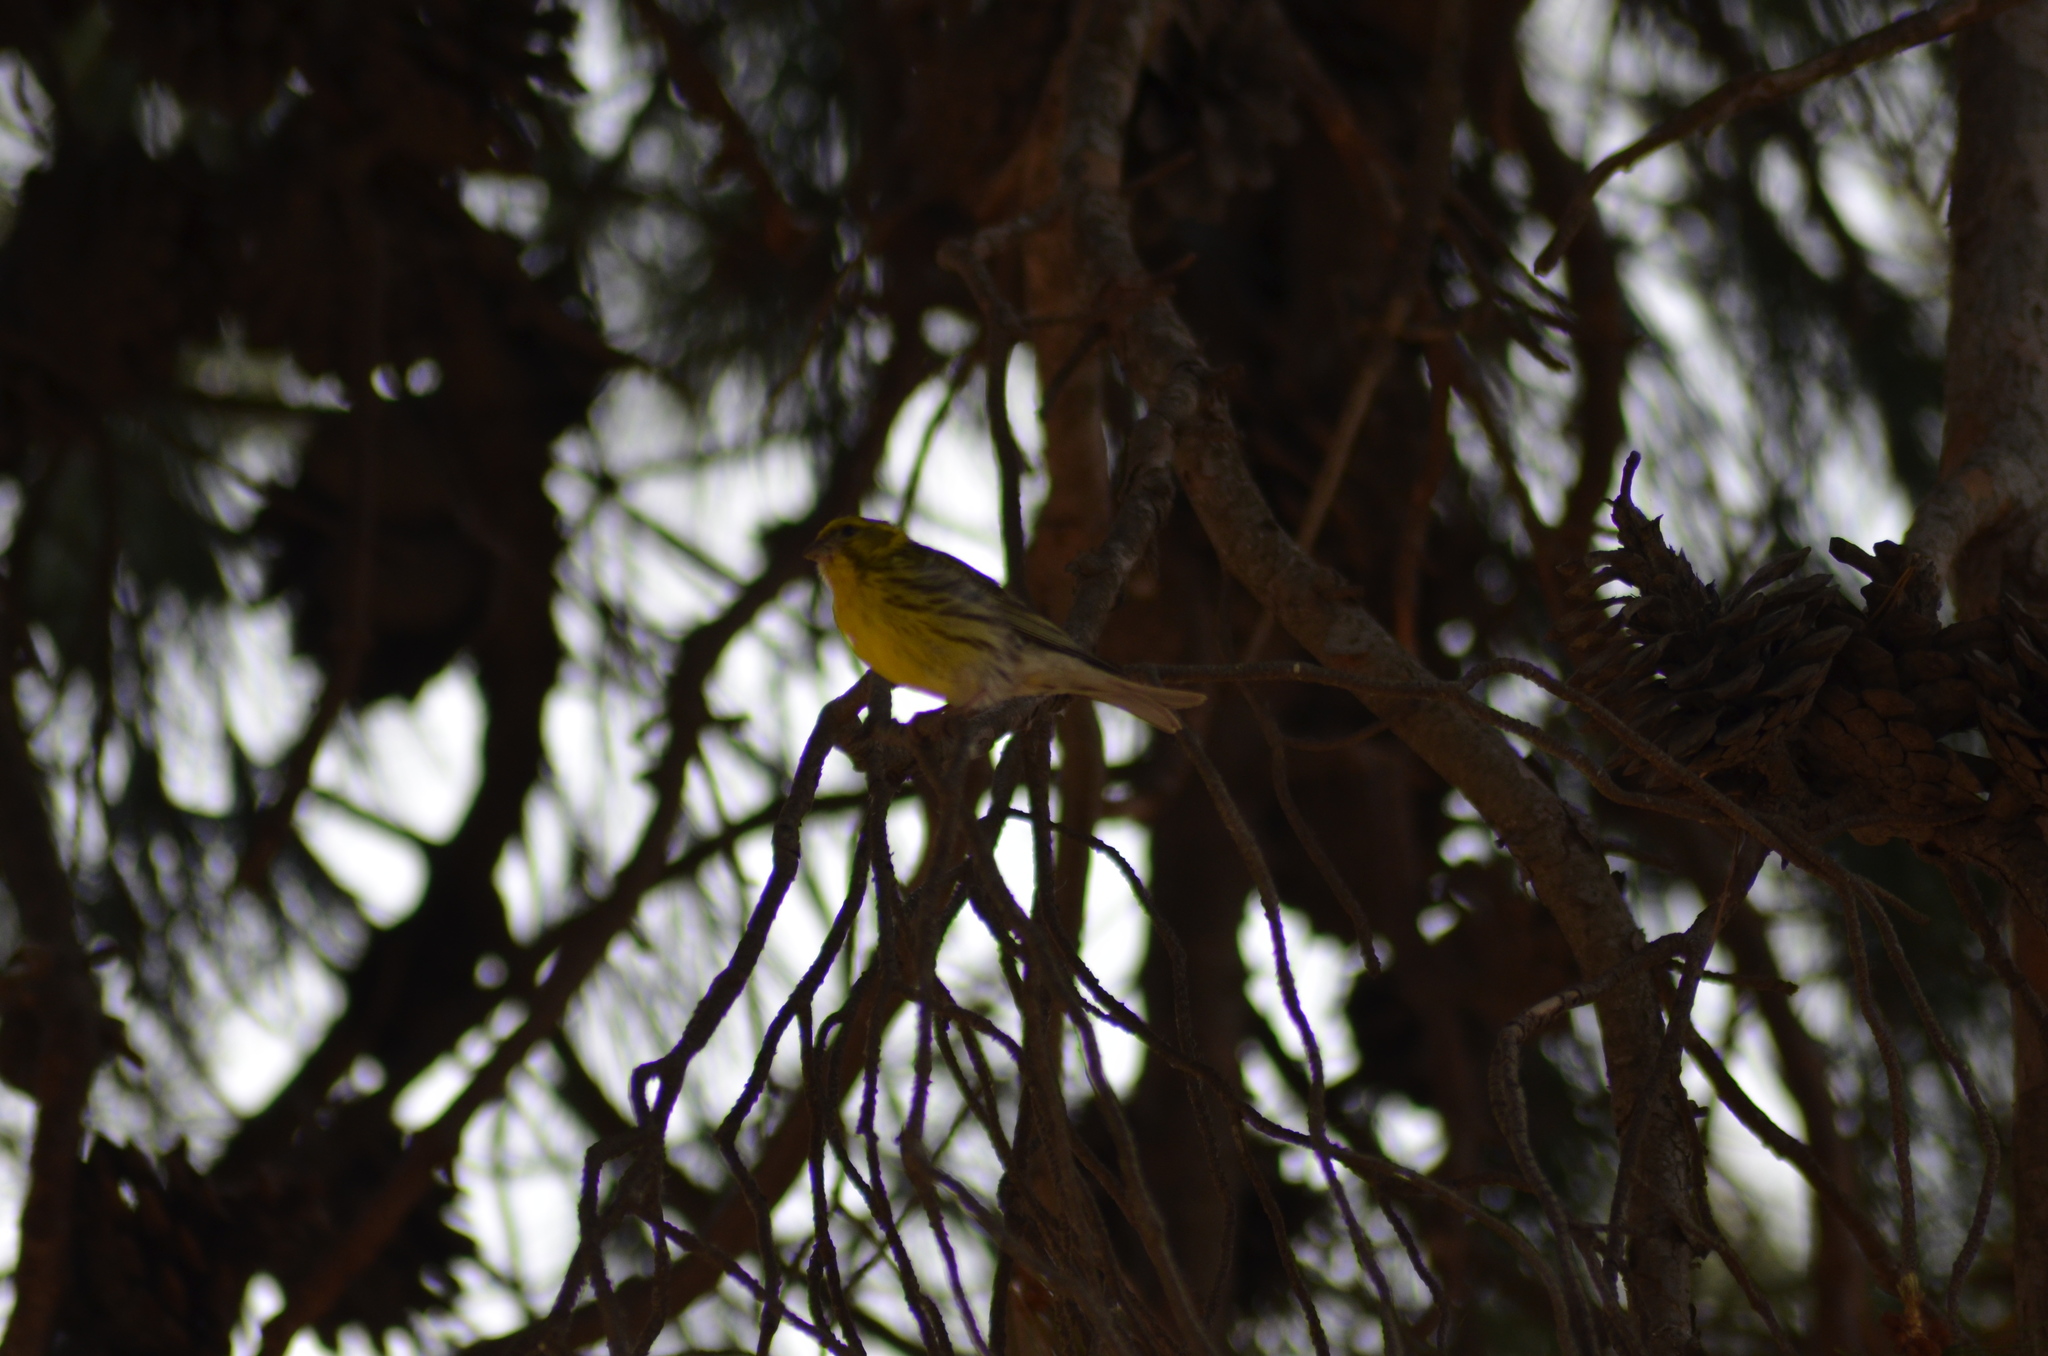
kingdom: Animalia
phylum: Chordata
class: Aves
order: Passeriformes
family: Fringillidae
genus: Serinus
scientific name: Serinus serinus
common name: European serin
